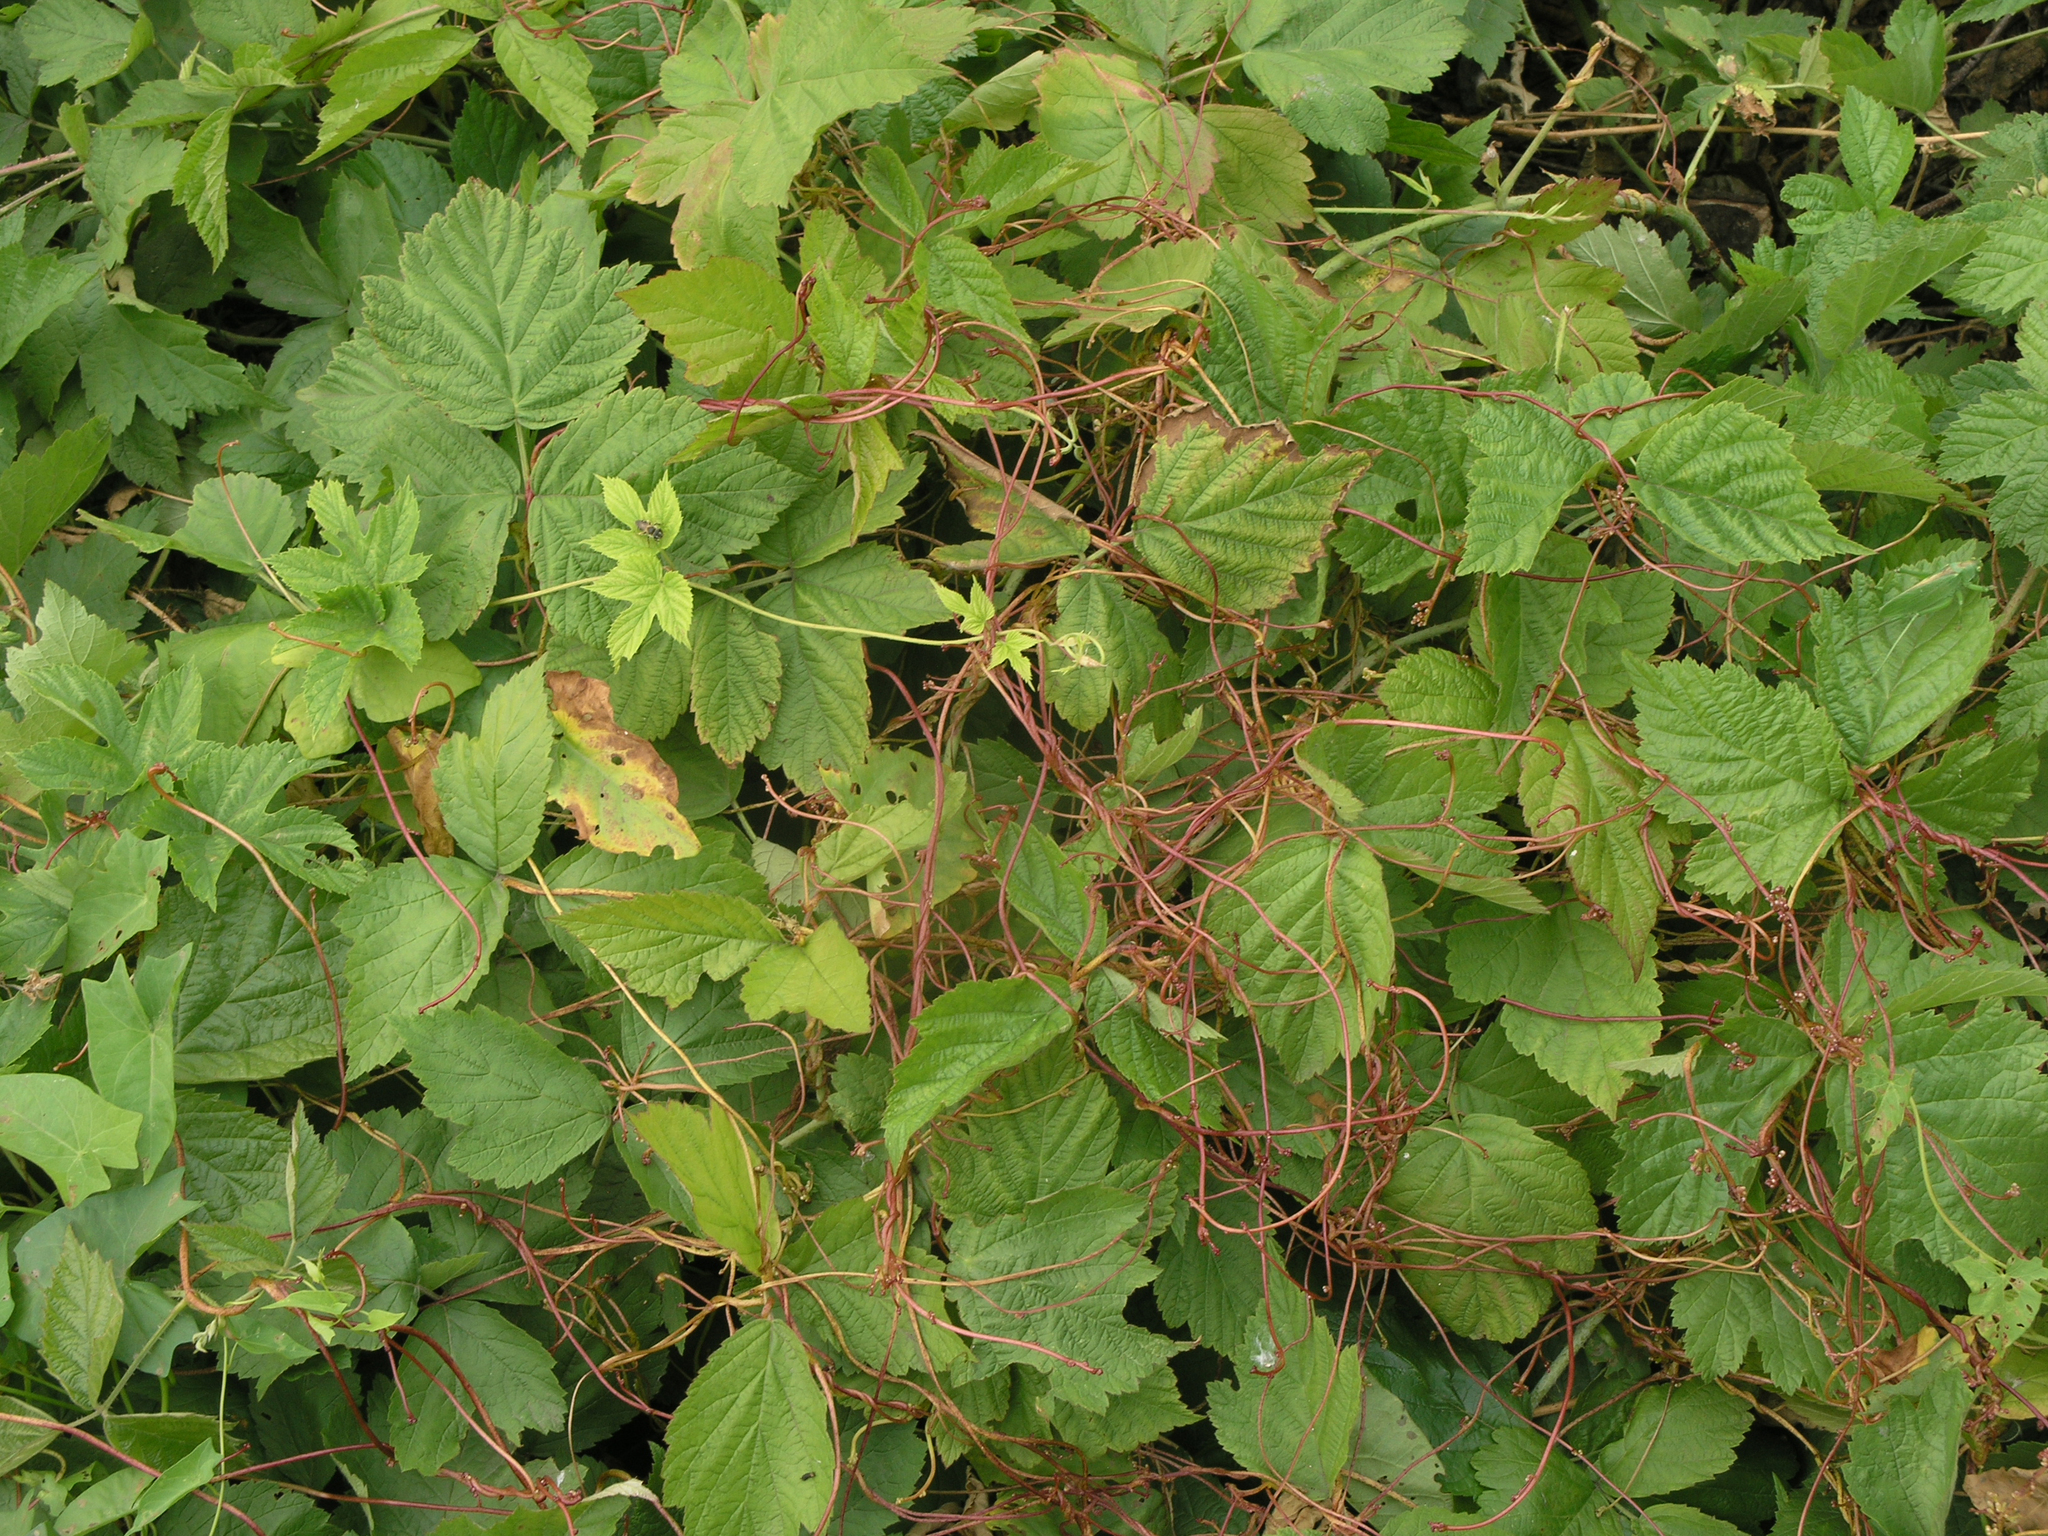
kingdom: Plantae
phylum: Tracheophyta
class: Magnoliopsida
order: Solanales
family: Convolvulaceae
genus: Cuscuta
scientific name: Cuscuta lupuliformis
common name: Hop dodder
